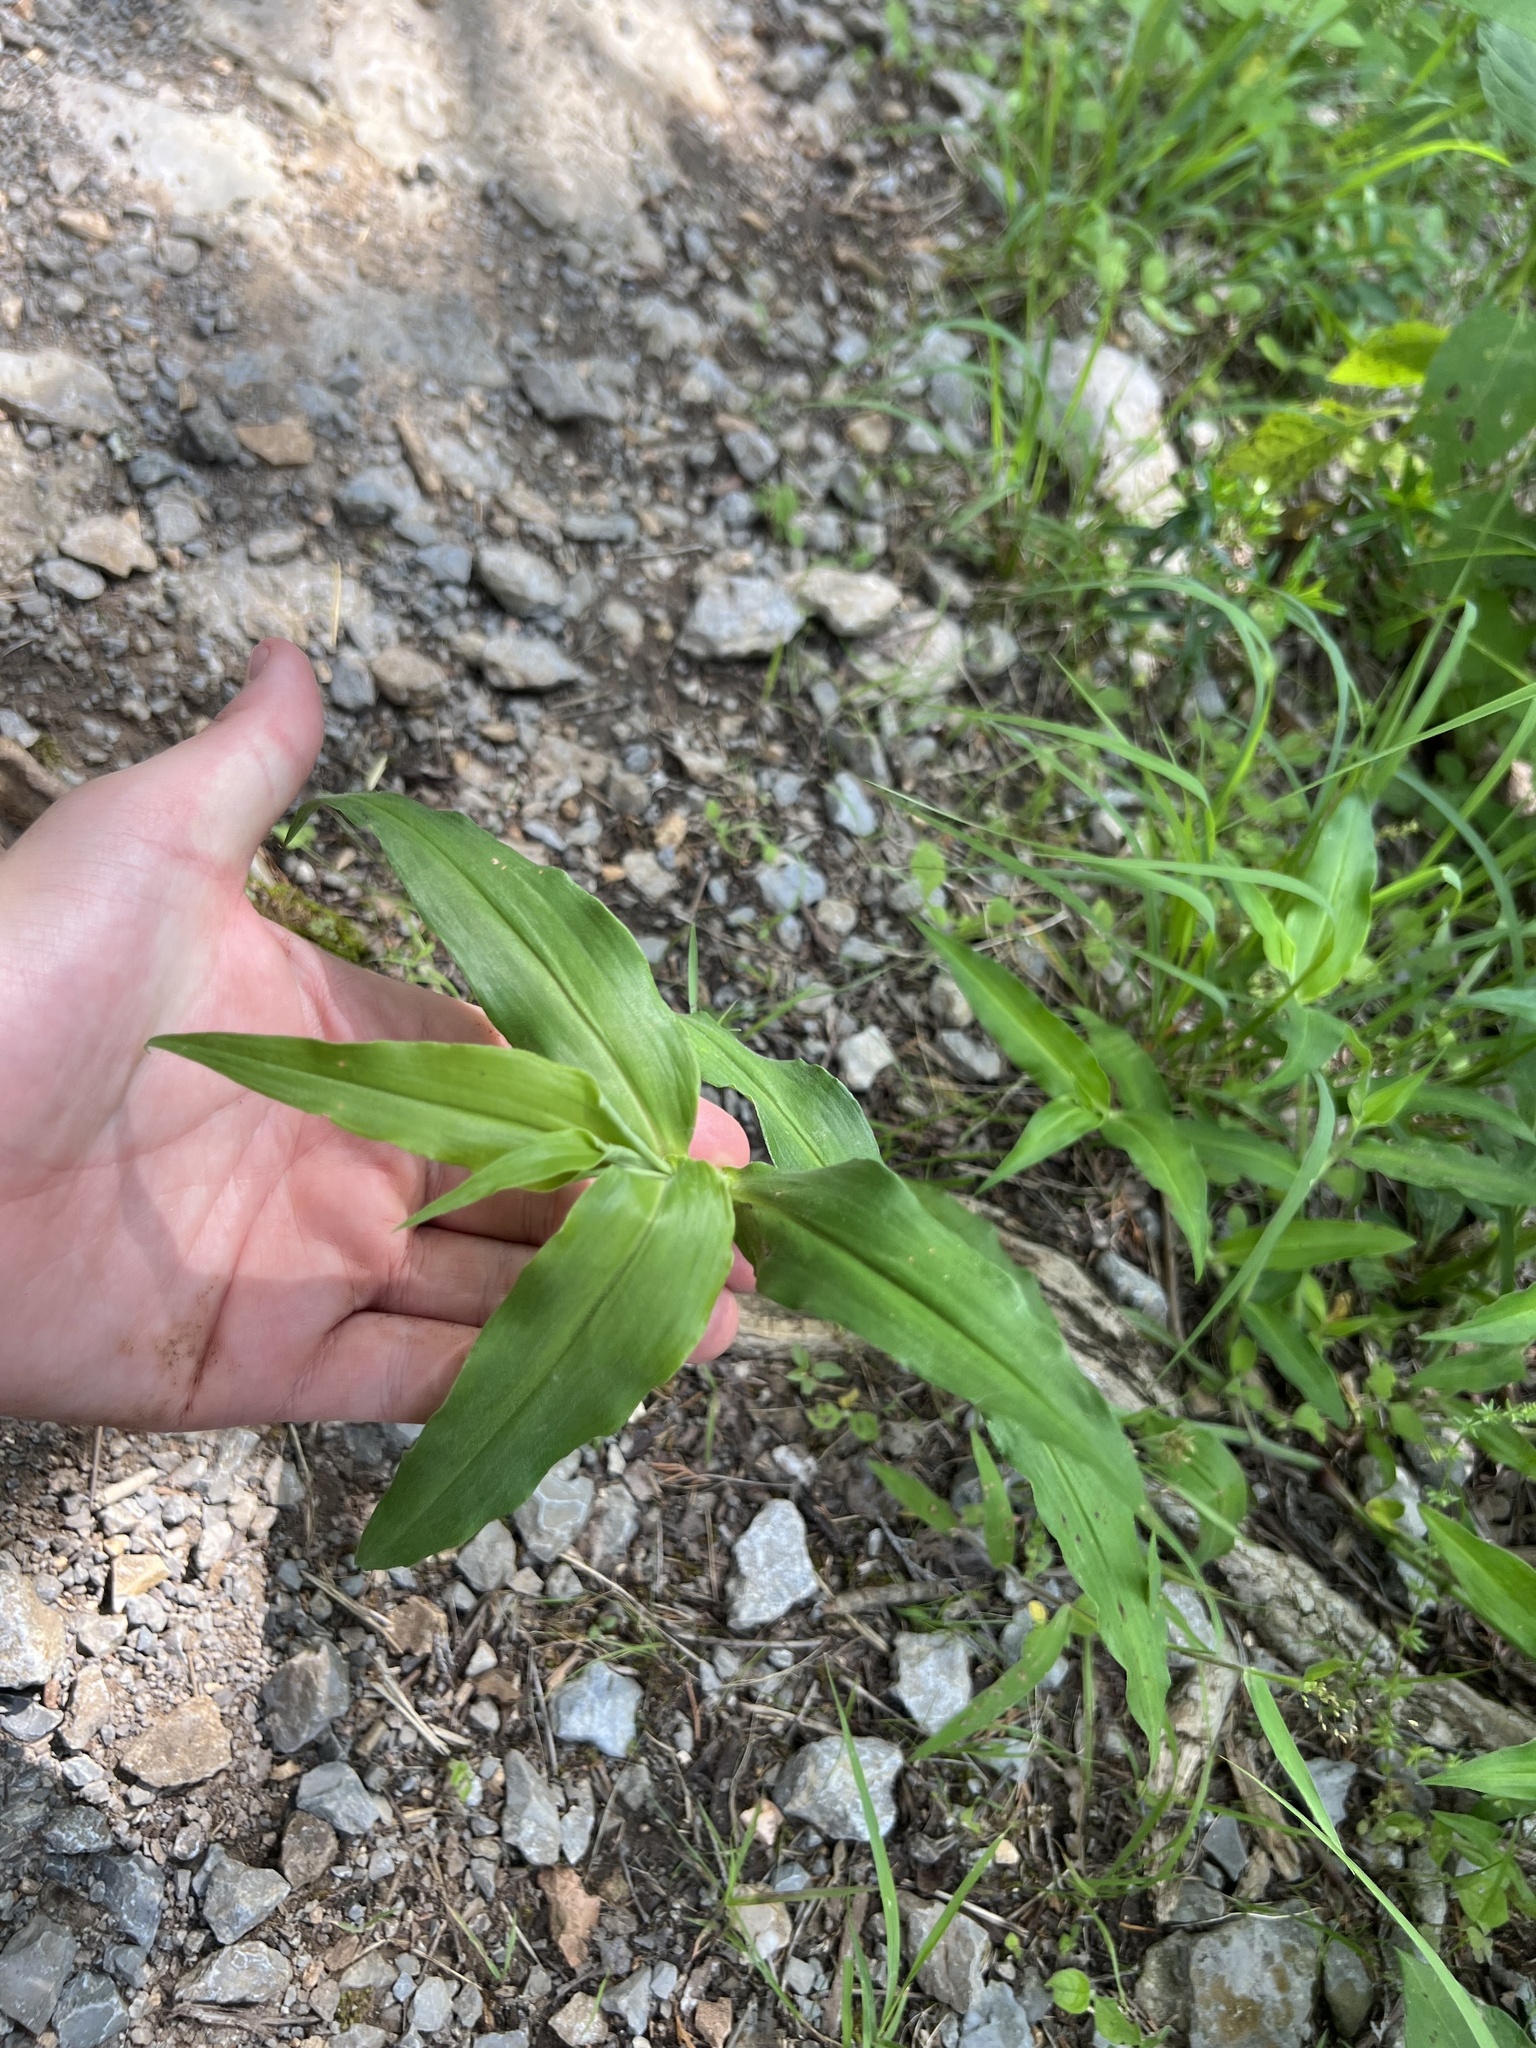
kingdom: Plantae
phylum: Tracheophyta
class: Liliopsida
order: Commelinales
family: Commelinaceae
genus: Commelina
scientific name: Commelina erecta
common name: Blousel blommetjie
